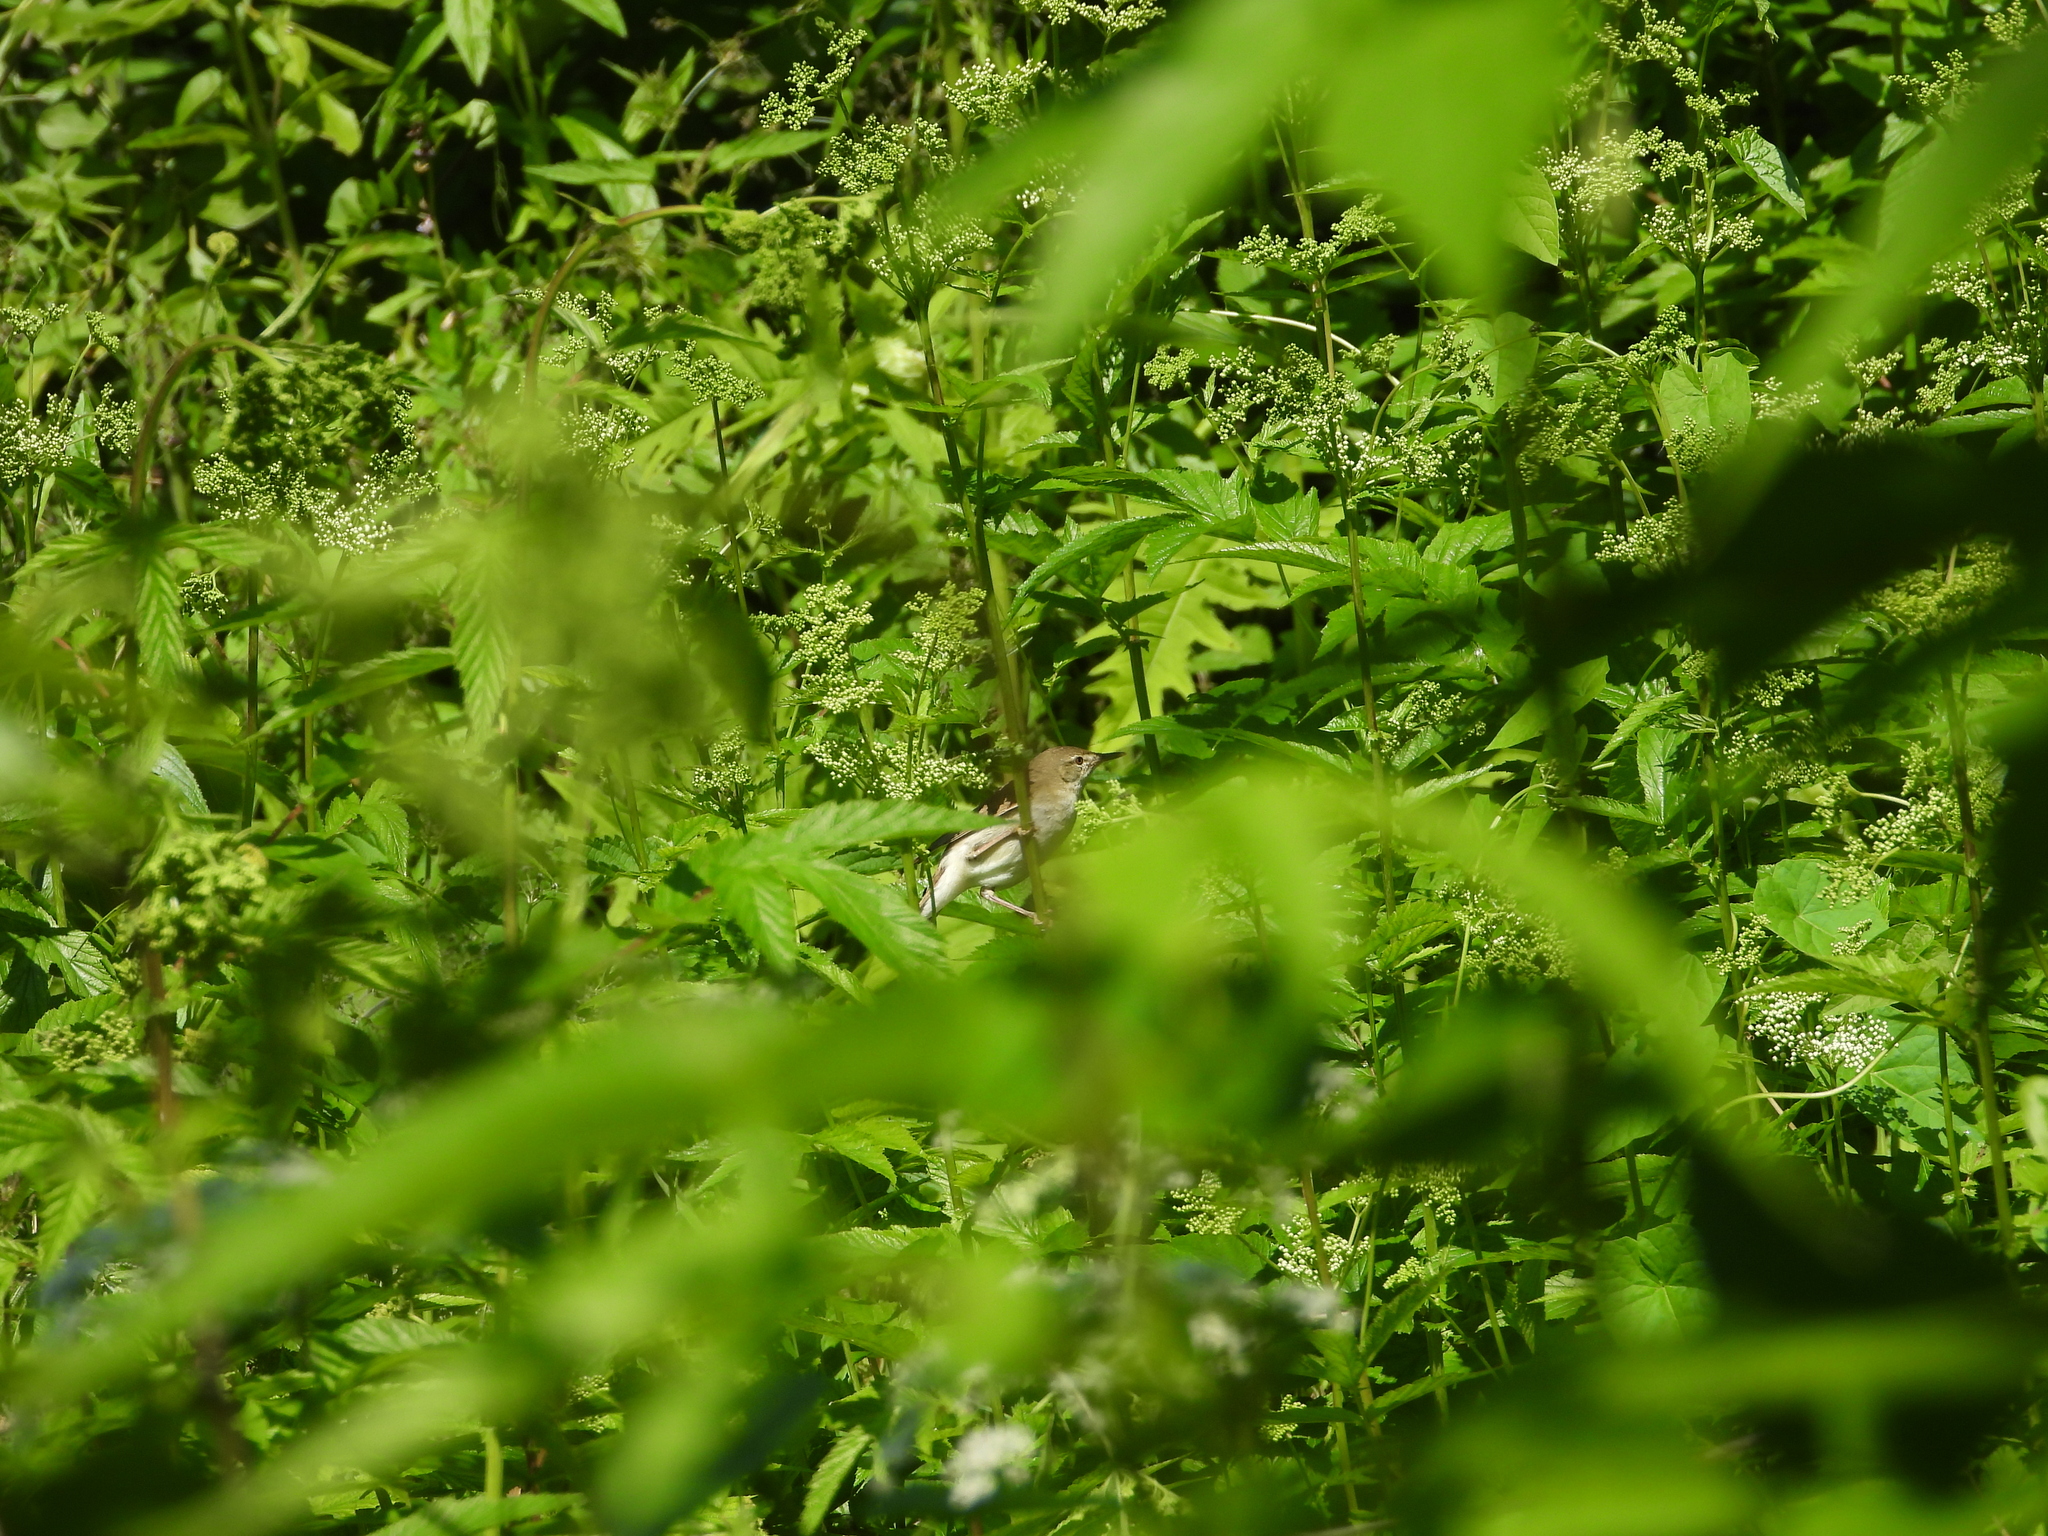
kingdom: Animalia
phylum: Chordata
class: Aves
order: Passeriformes
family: Acrocephalidae
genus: Acrocephalus
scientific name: Acrocephalus dumetorum
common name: Blyth's reed warbler
